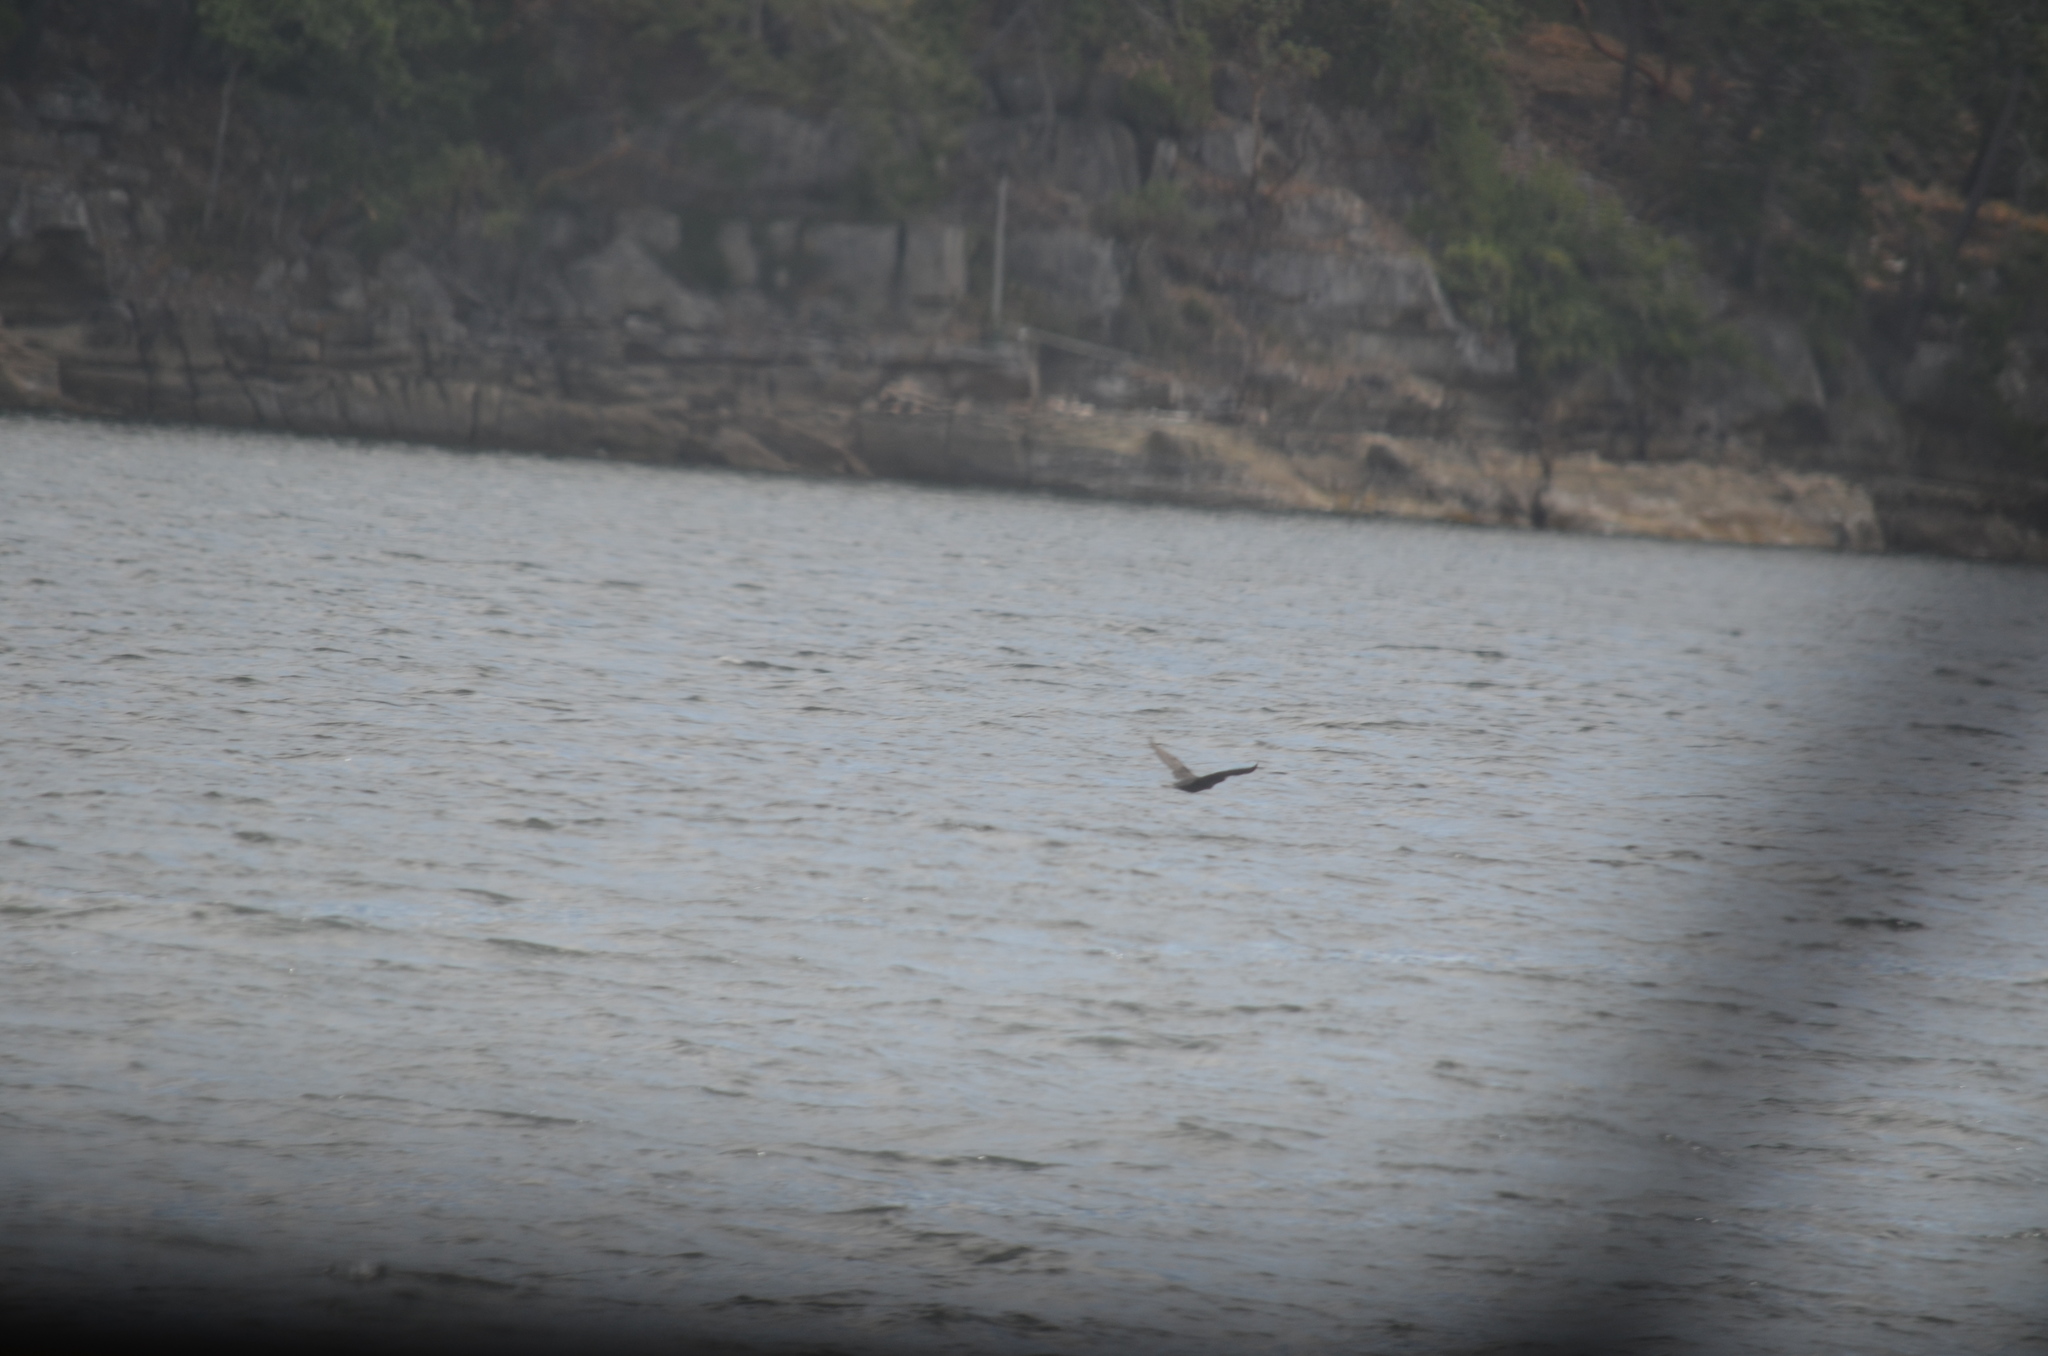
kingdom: Animalia
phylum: Chordata
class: Aves
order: Suliformes
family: Phalacrocoracidae
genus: Phalacrocorax
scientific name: Phalacrocorax auritus
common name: Double-crested cormorant
